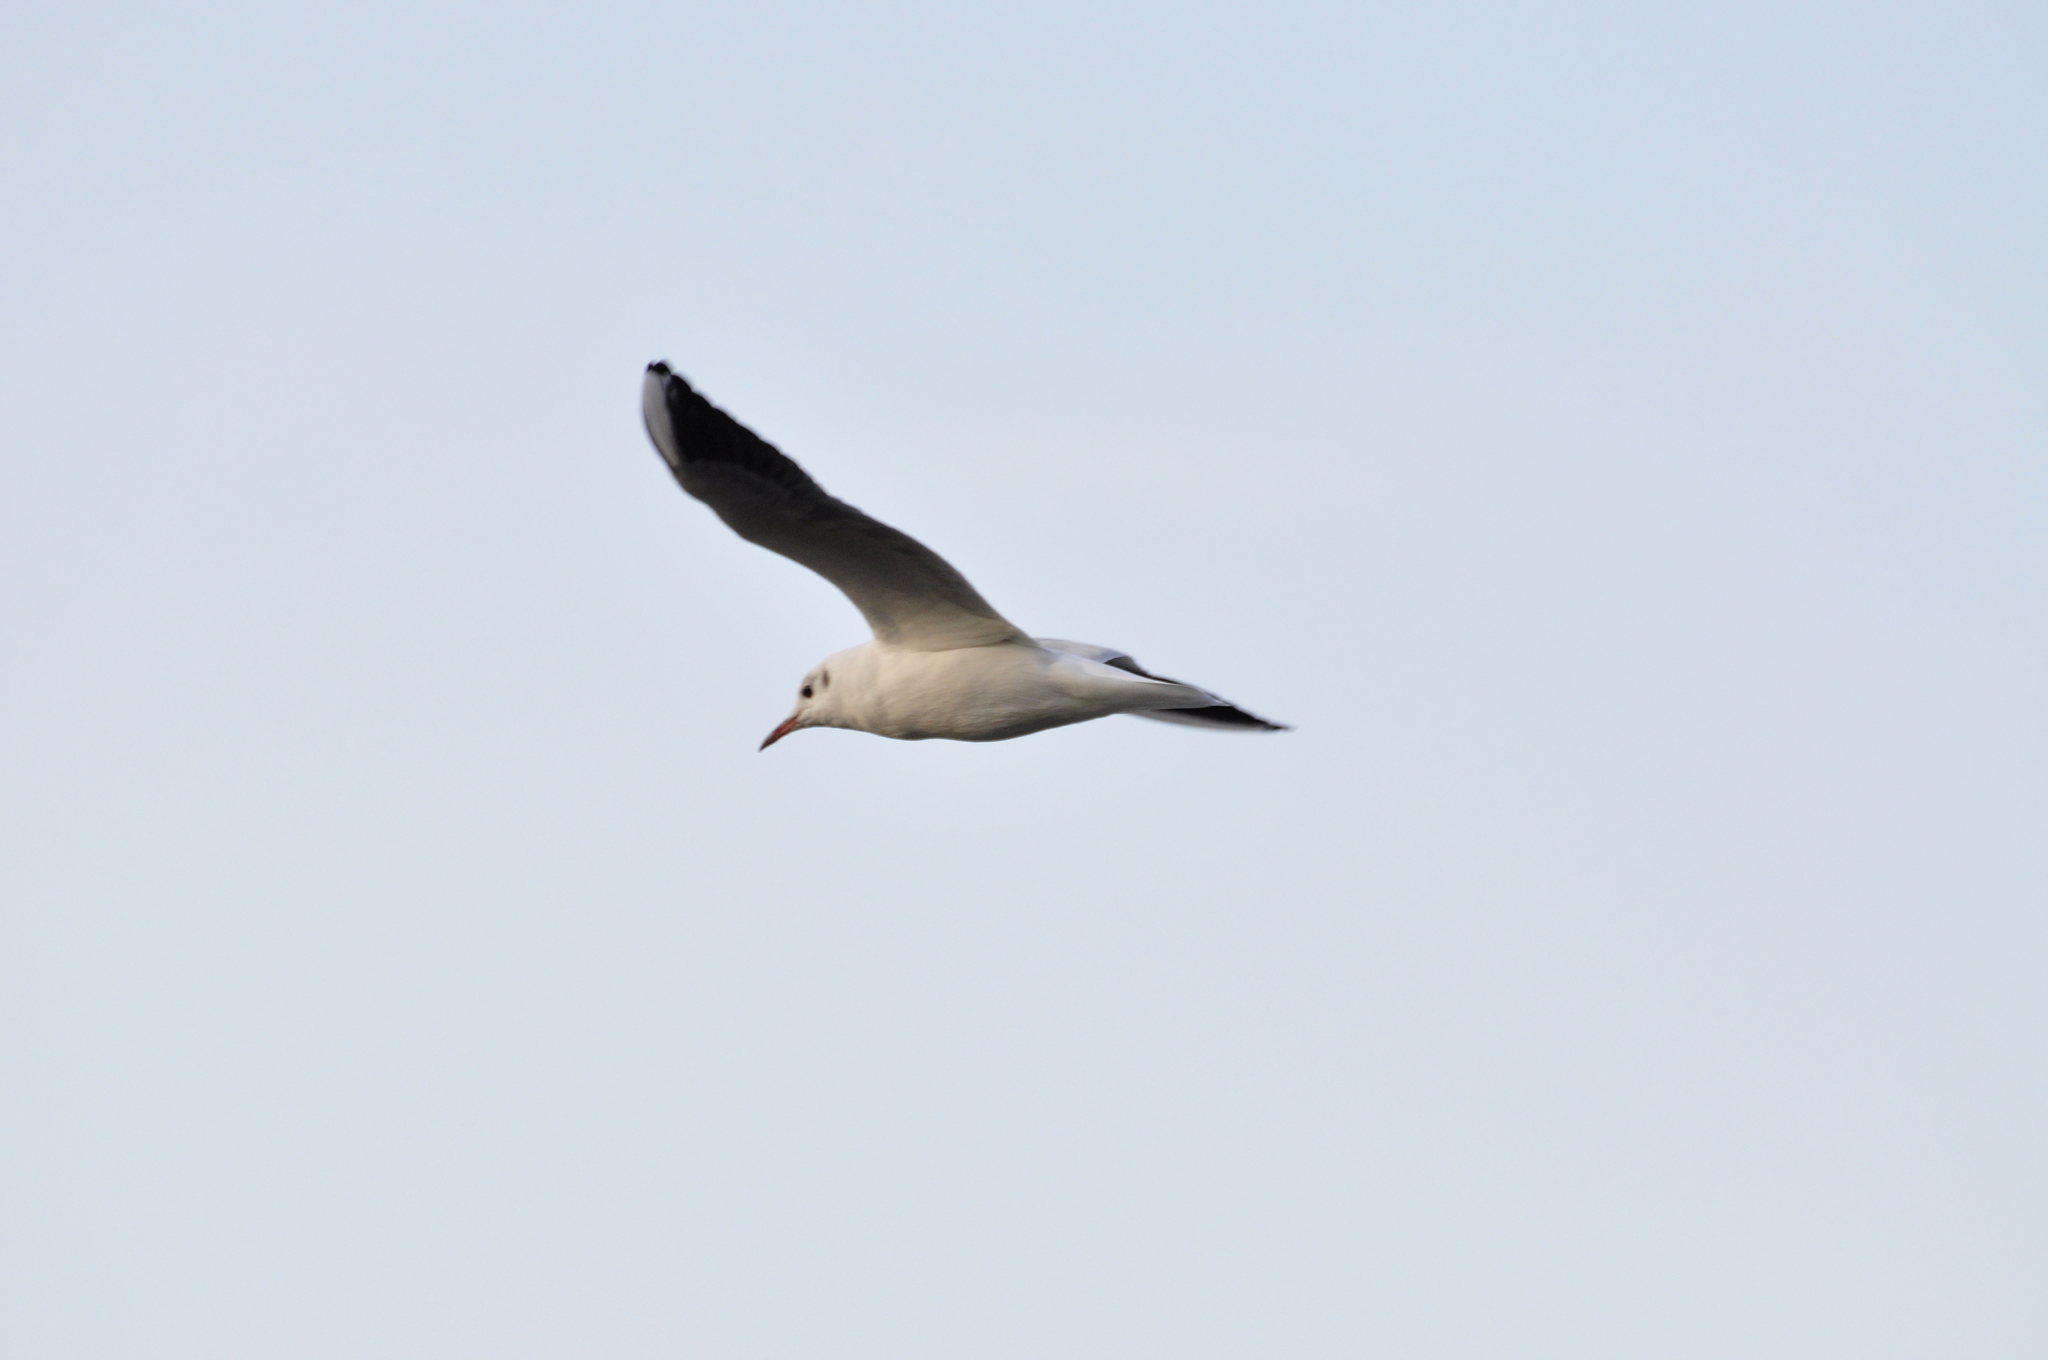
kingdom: Animalia
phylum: Chordata
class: Aves
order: Charadriiformes
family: Laridae
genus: Chroicocephalus
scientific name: Chroicocephalus ridibundus
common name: Black-headed gull
